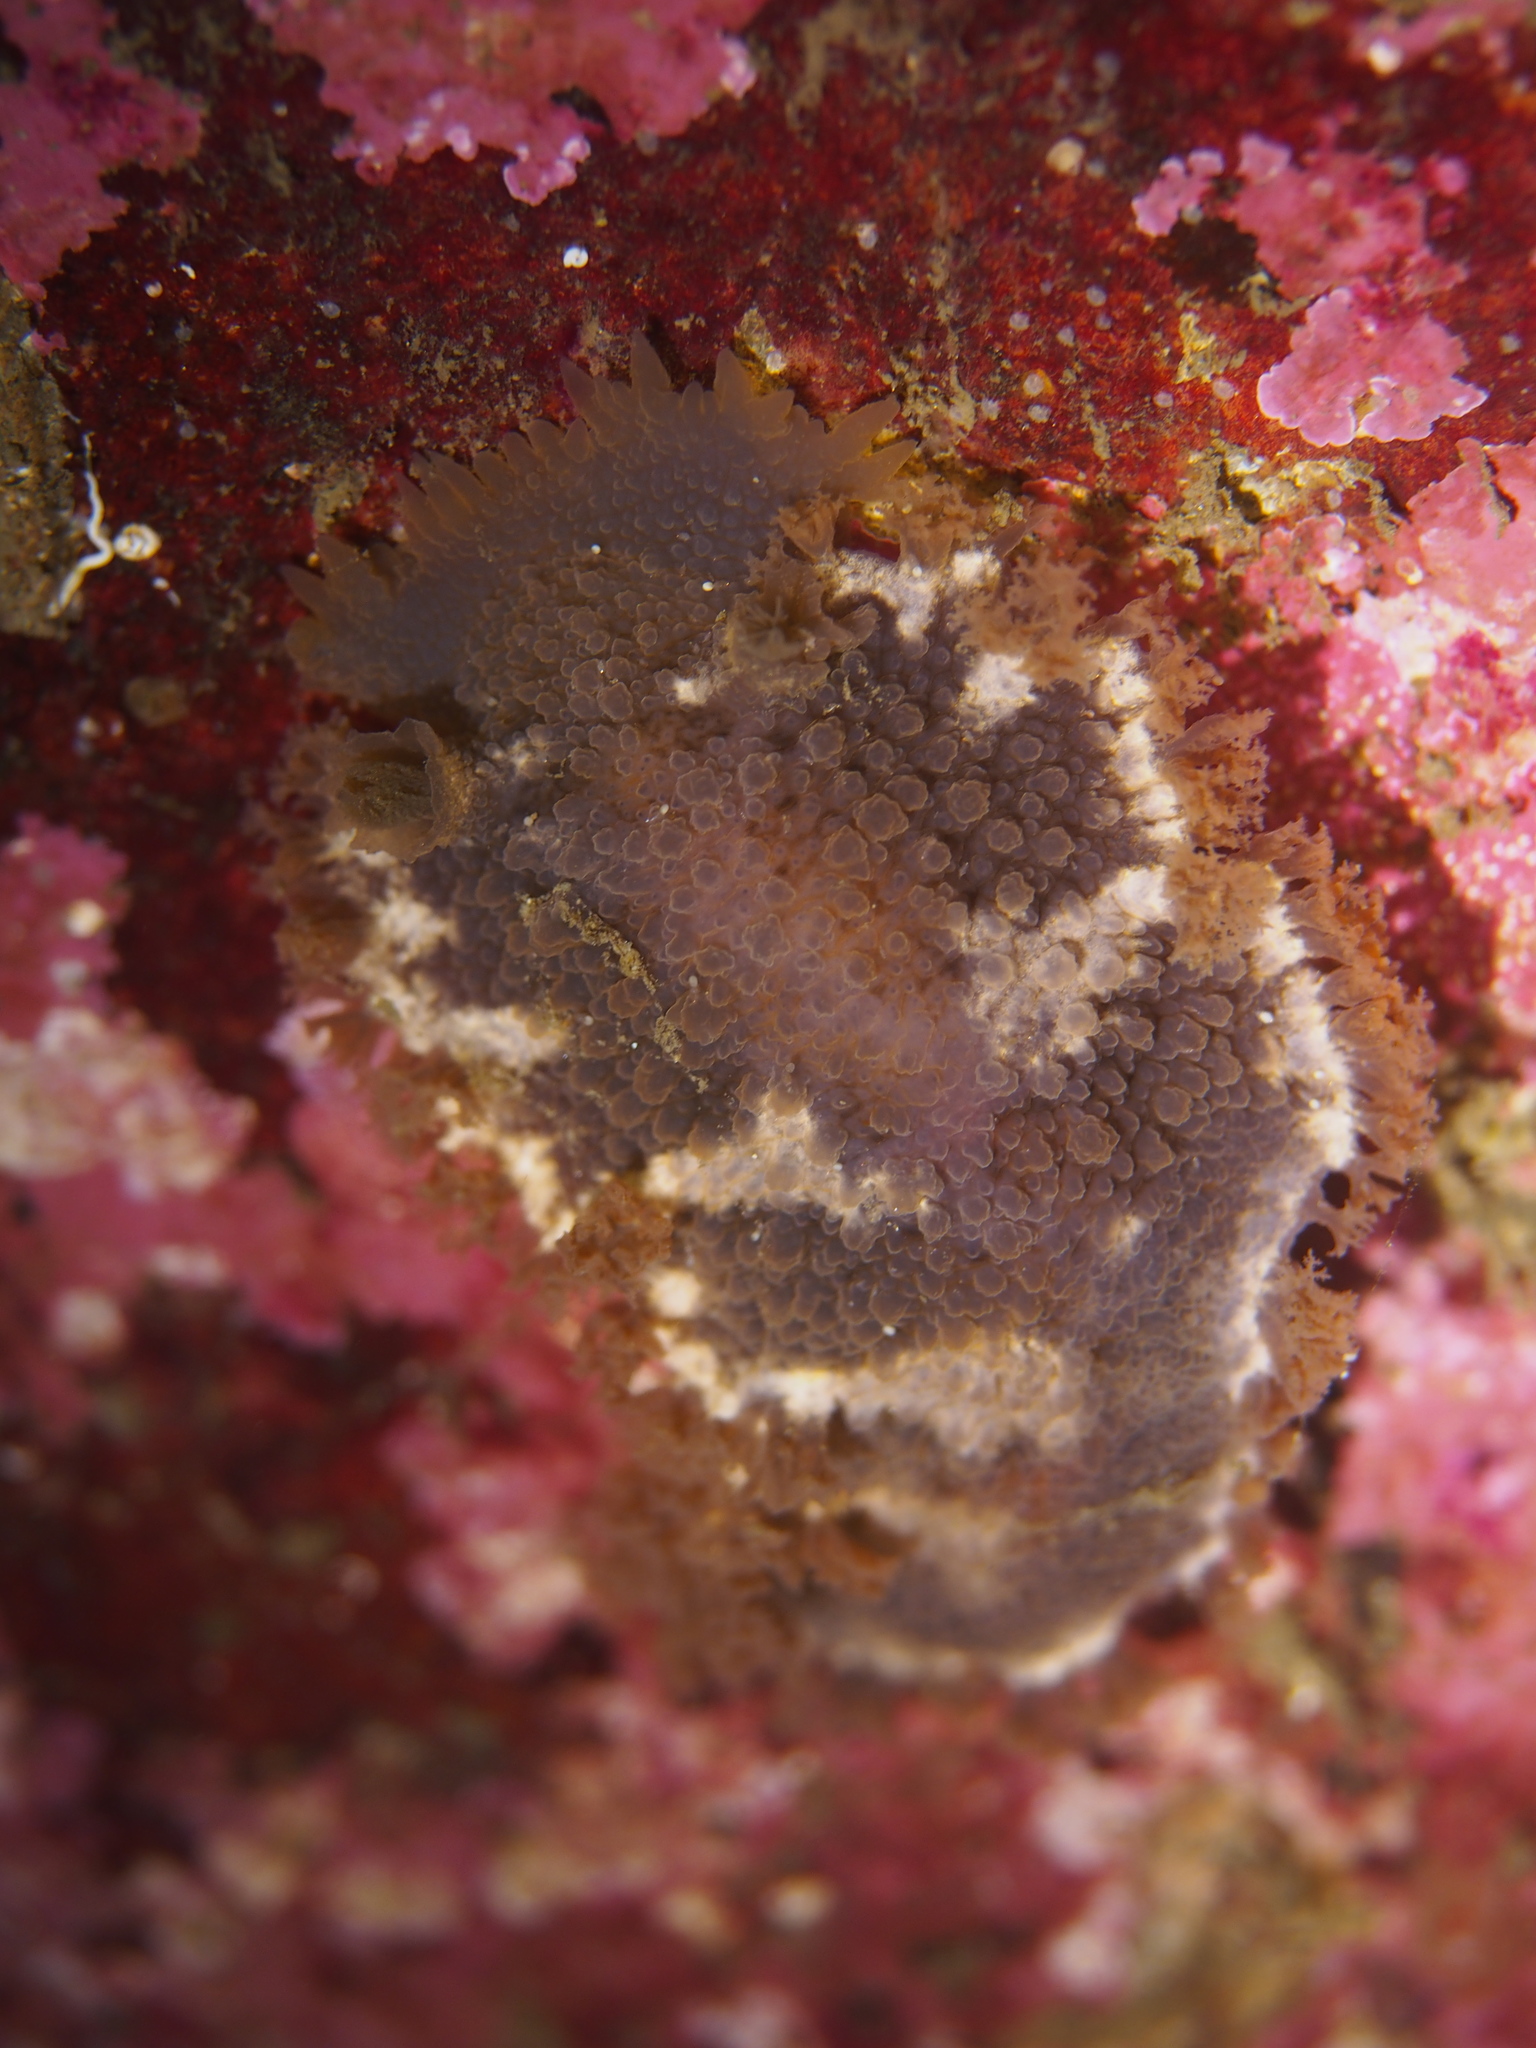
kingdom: Animalia
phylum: Mollusca
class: Gastropoda
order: Nudibranchia
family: Tritoniidae
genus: Tritonia
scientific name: Tritonia hombergii
